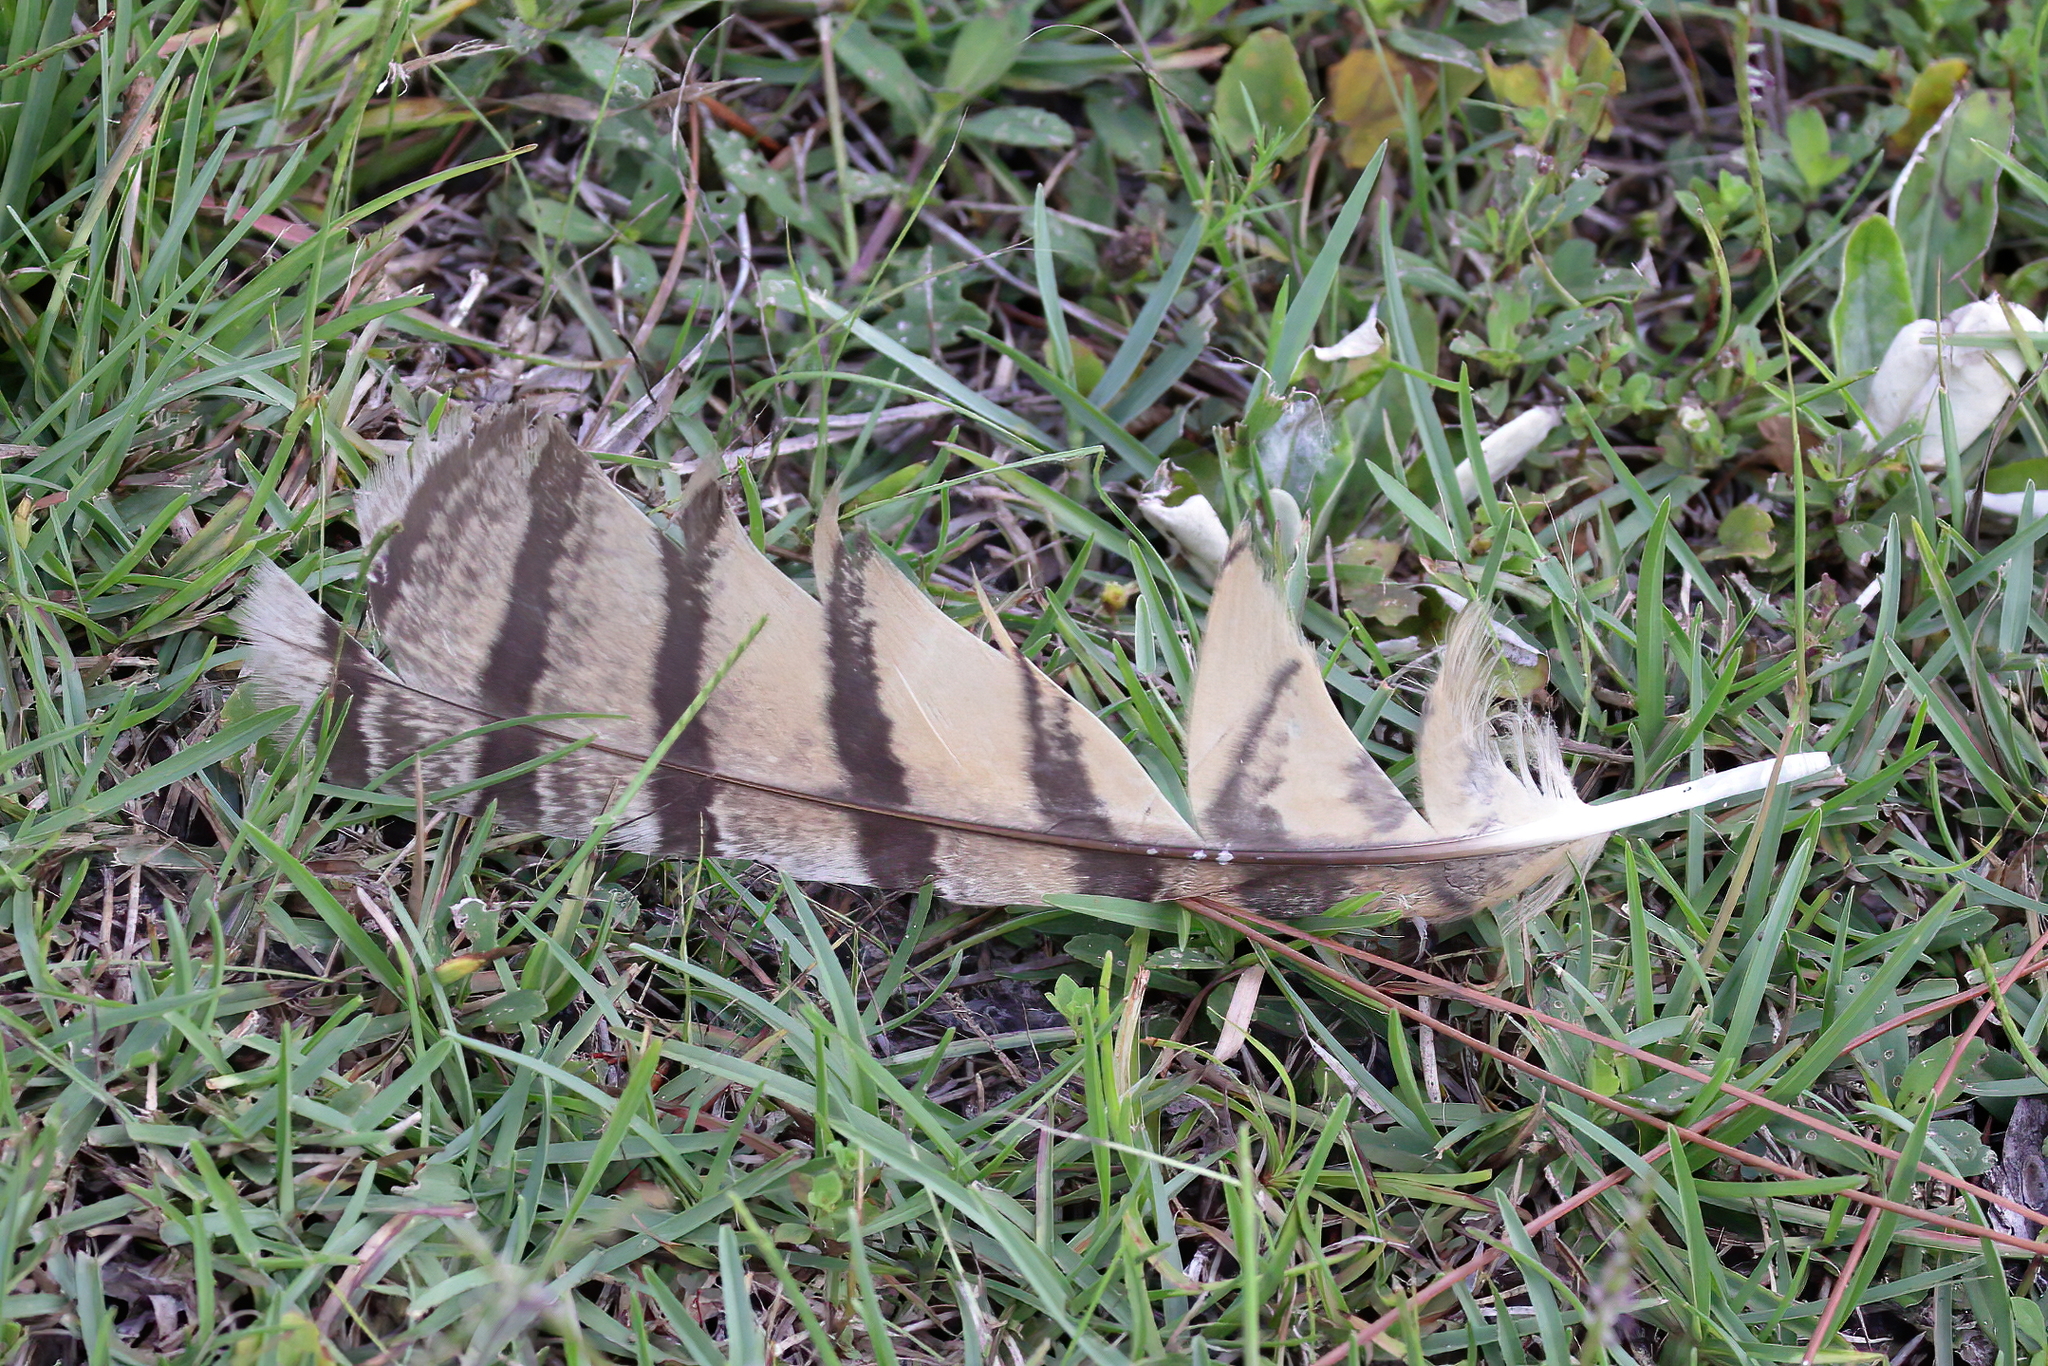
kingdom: Animalia
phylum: Chordata
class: Aves
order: Strigiformes
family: Strigidae
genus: Bubo
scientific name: Bubo virginianus
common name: Great horned owl
